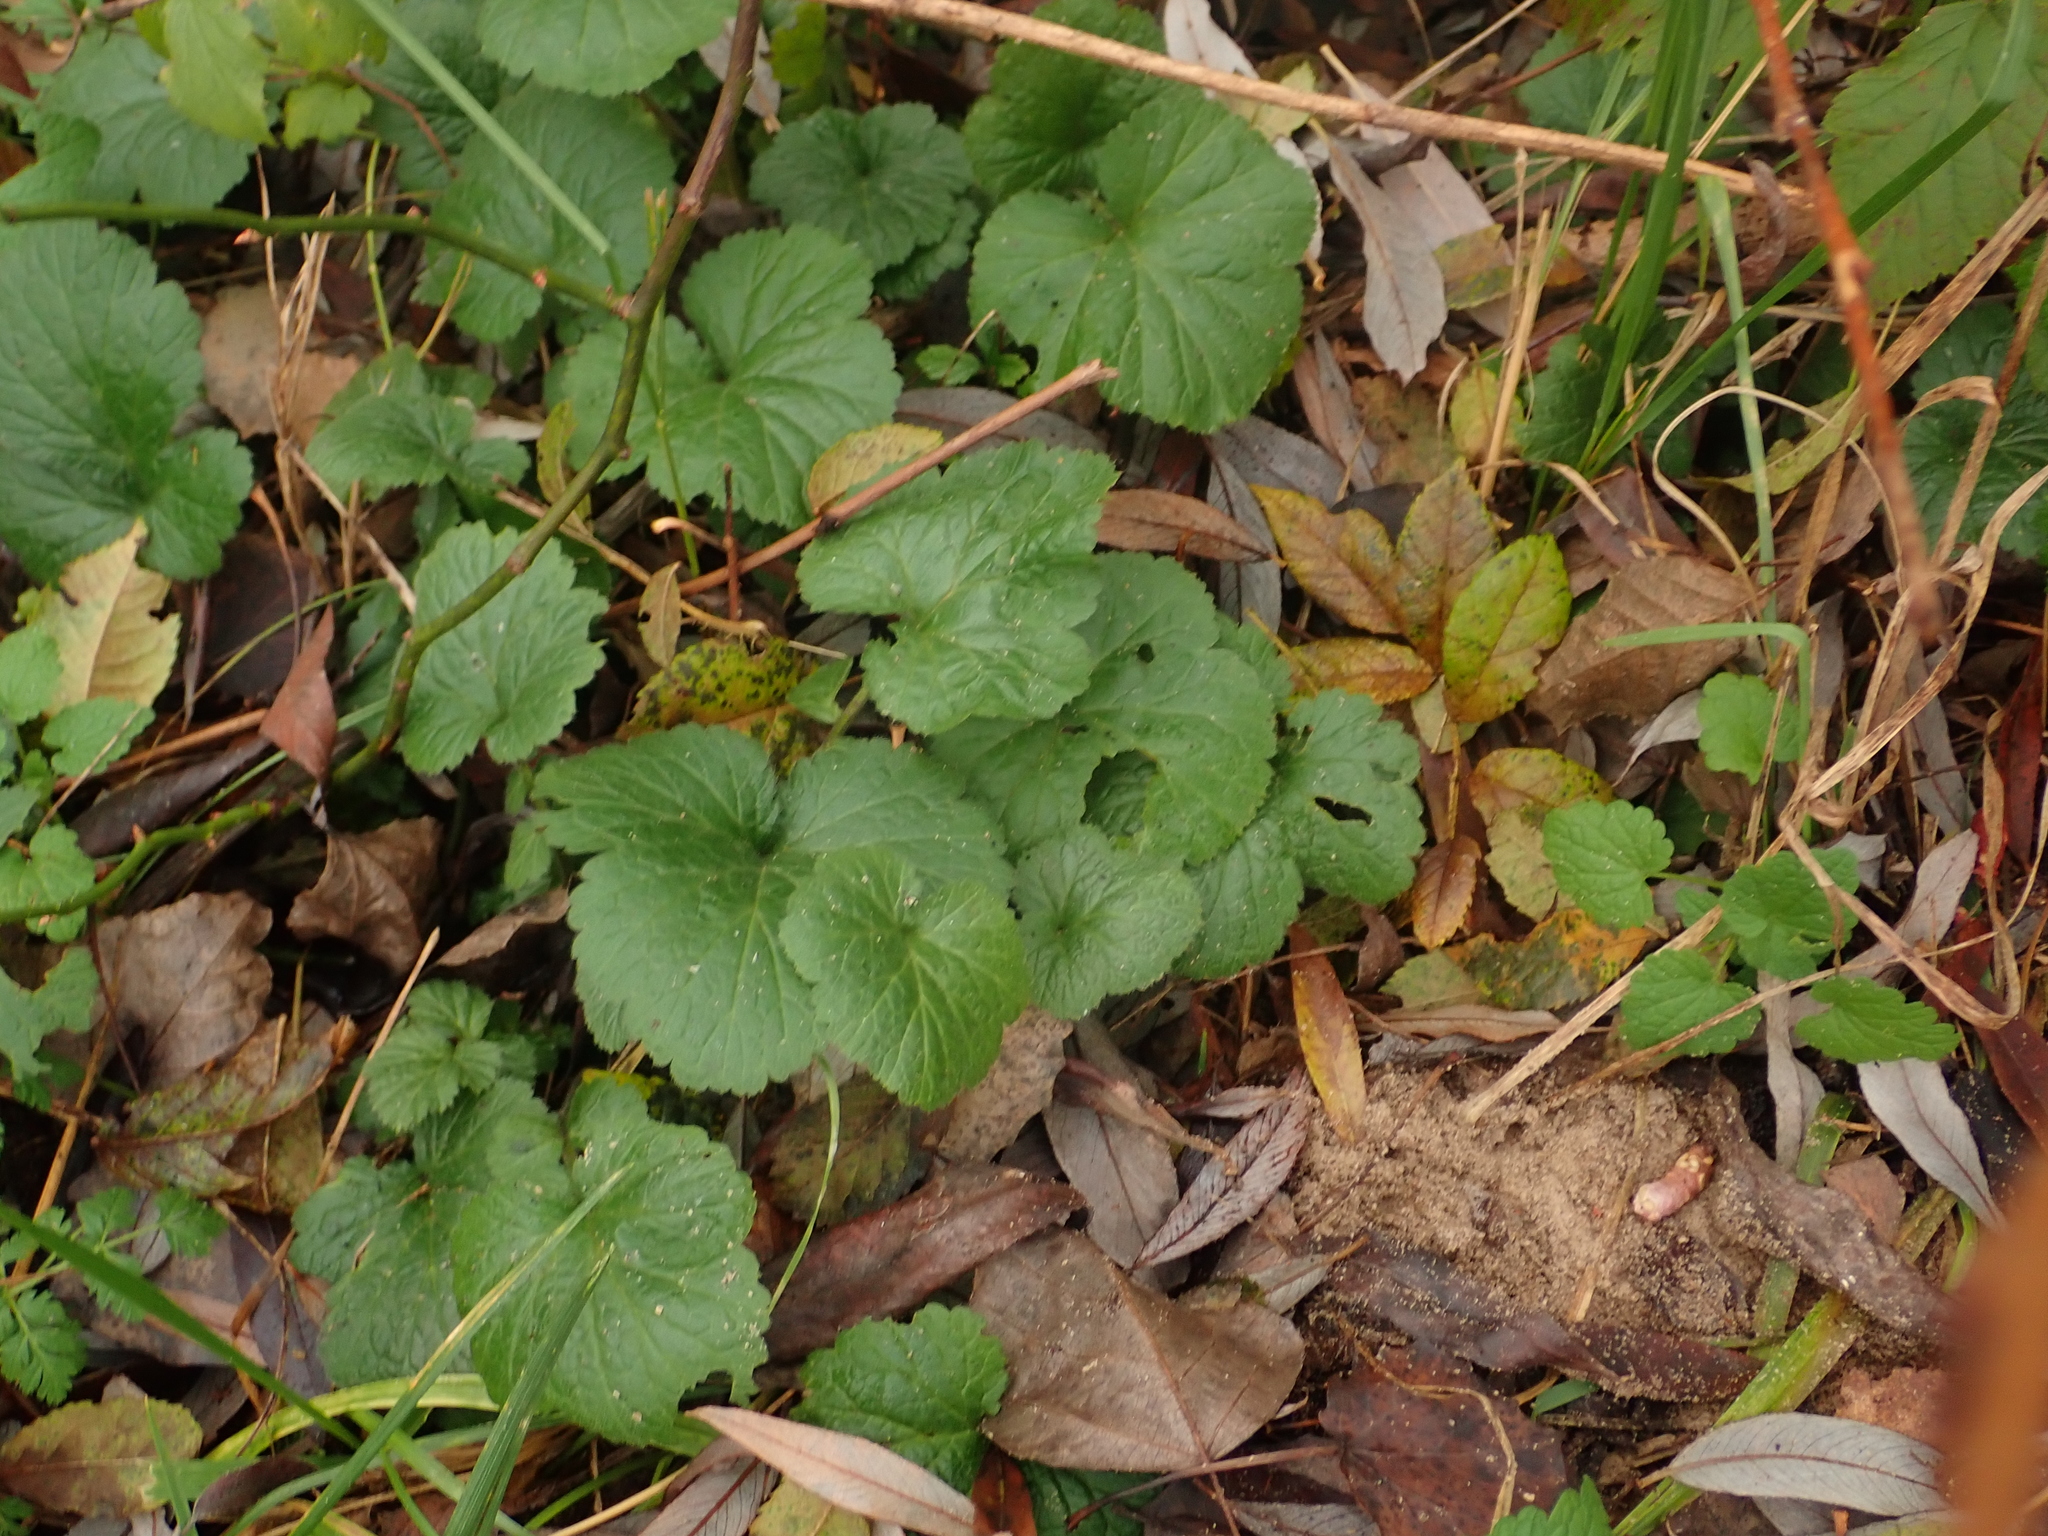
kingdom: Plantae
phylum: Tracheophyta
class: Magnoliopsida
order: Rosales
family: Rosaceae
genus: Geum
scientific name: Geum urbanum
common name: Wood avens
